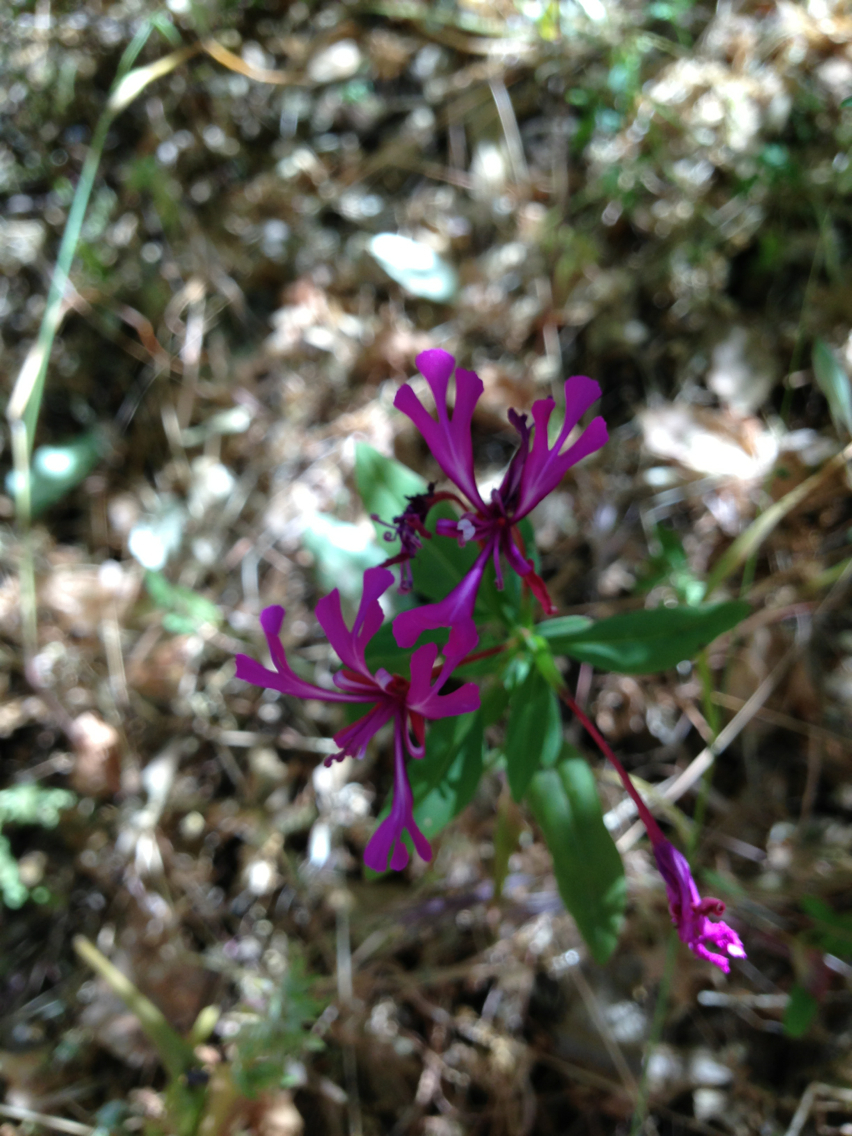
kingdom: Plantae
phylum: Tracheophyta
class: Magnoliopsida
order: Myrtales
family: Onagraceae
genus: Clarkia
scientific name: Clarkia concinna
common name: Red-ribbons
